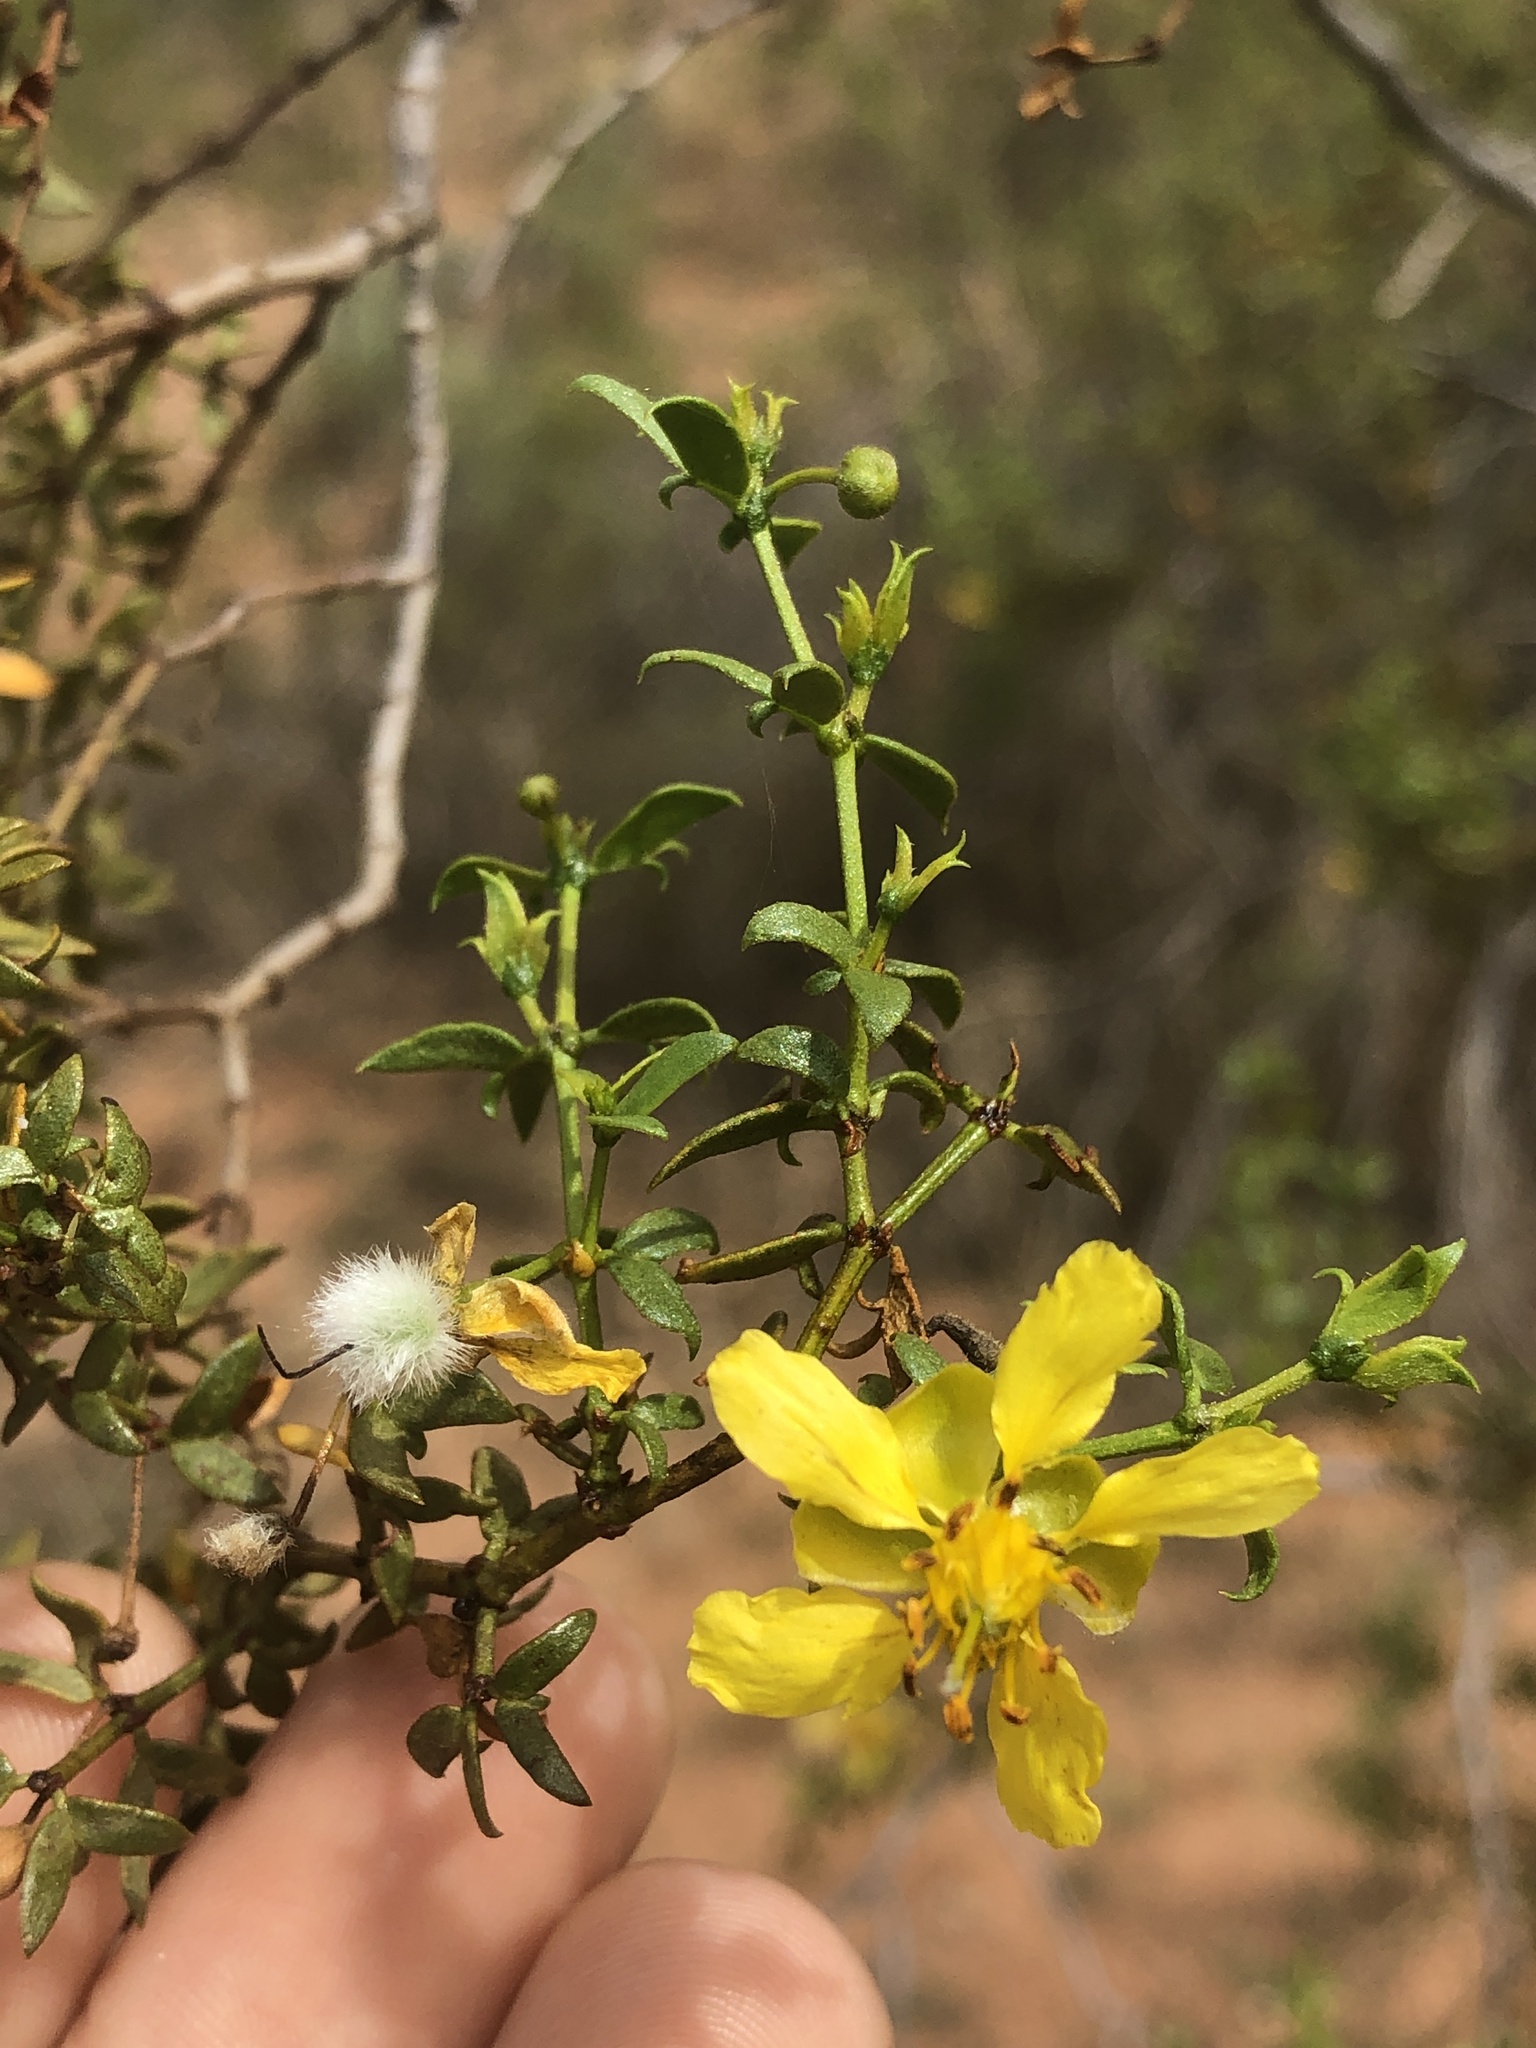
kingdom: Plantae
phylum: Tracheophyta
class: Magnoliopsida
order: Zygophyllales
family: Zygophyllaceae
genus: Larrea
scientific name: Larrea tridentata
